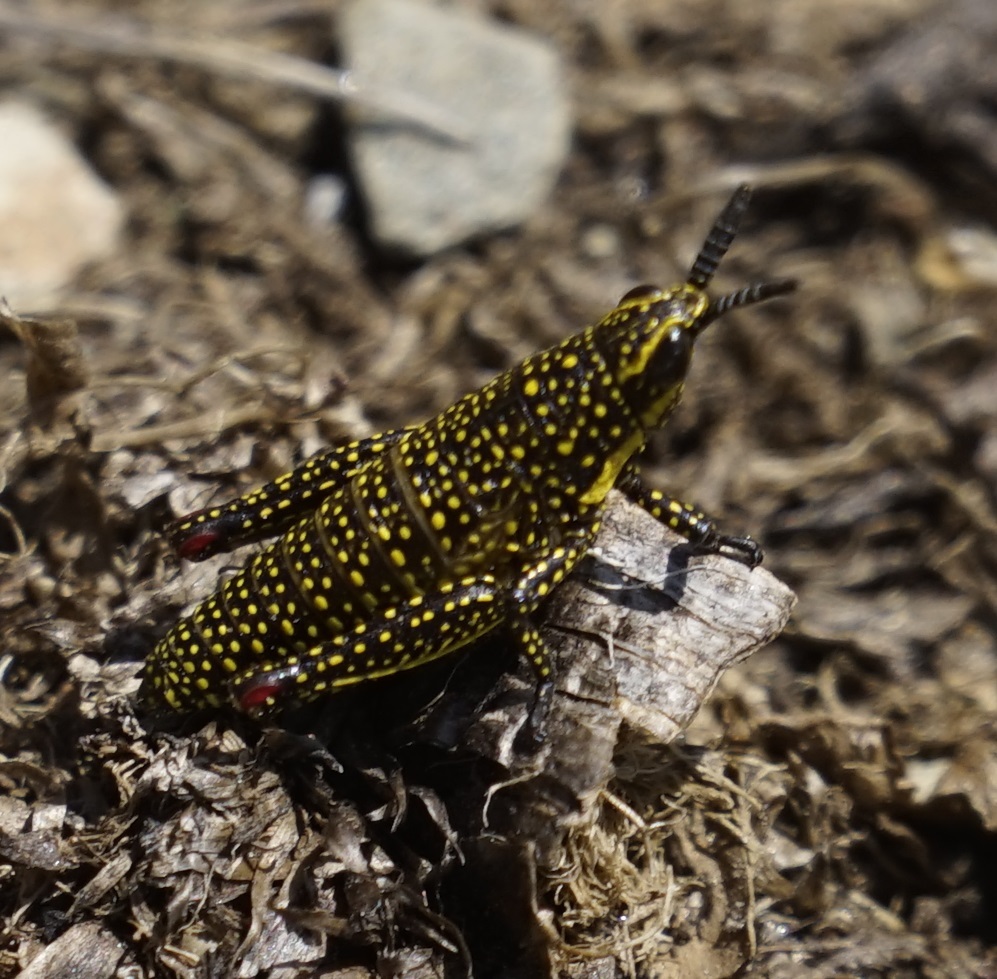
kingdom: Animalia
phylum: Arthropoda
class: Insecta
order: Orthoptera
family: Pyrgomorphidae
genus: Monistria
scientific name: Monistria concinna
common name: Southern pyrgomorph
